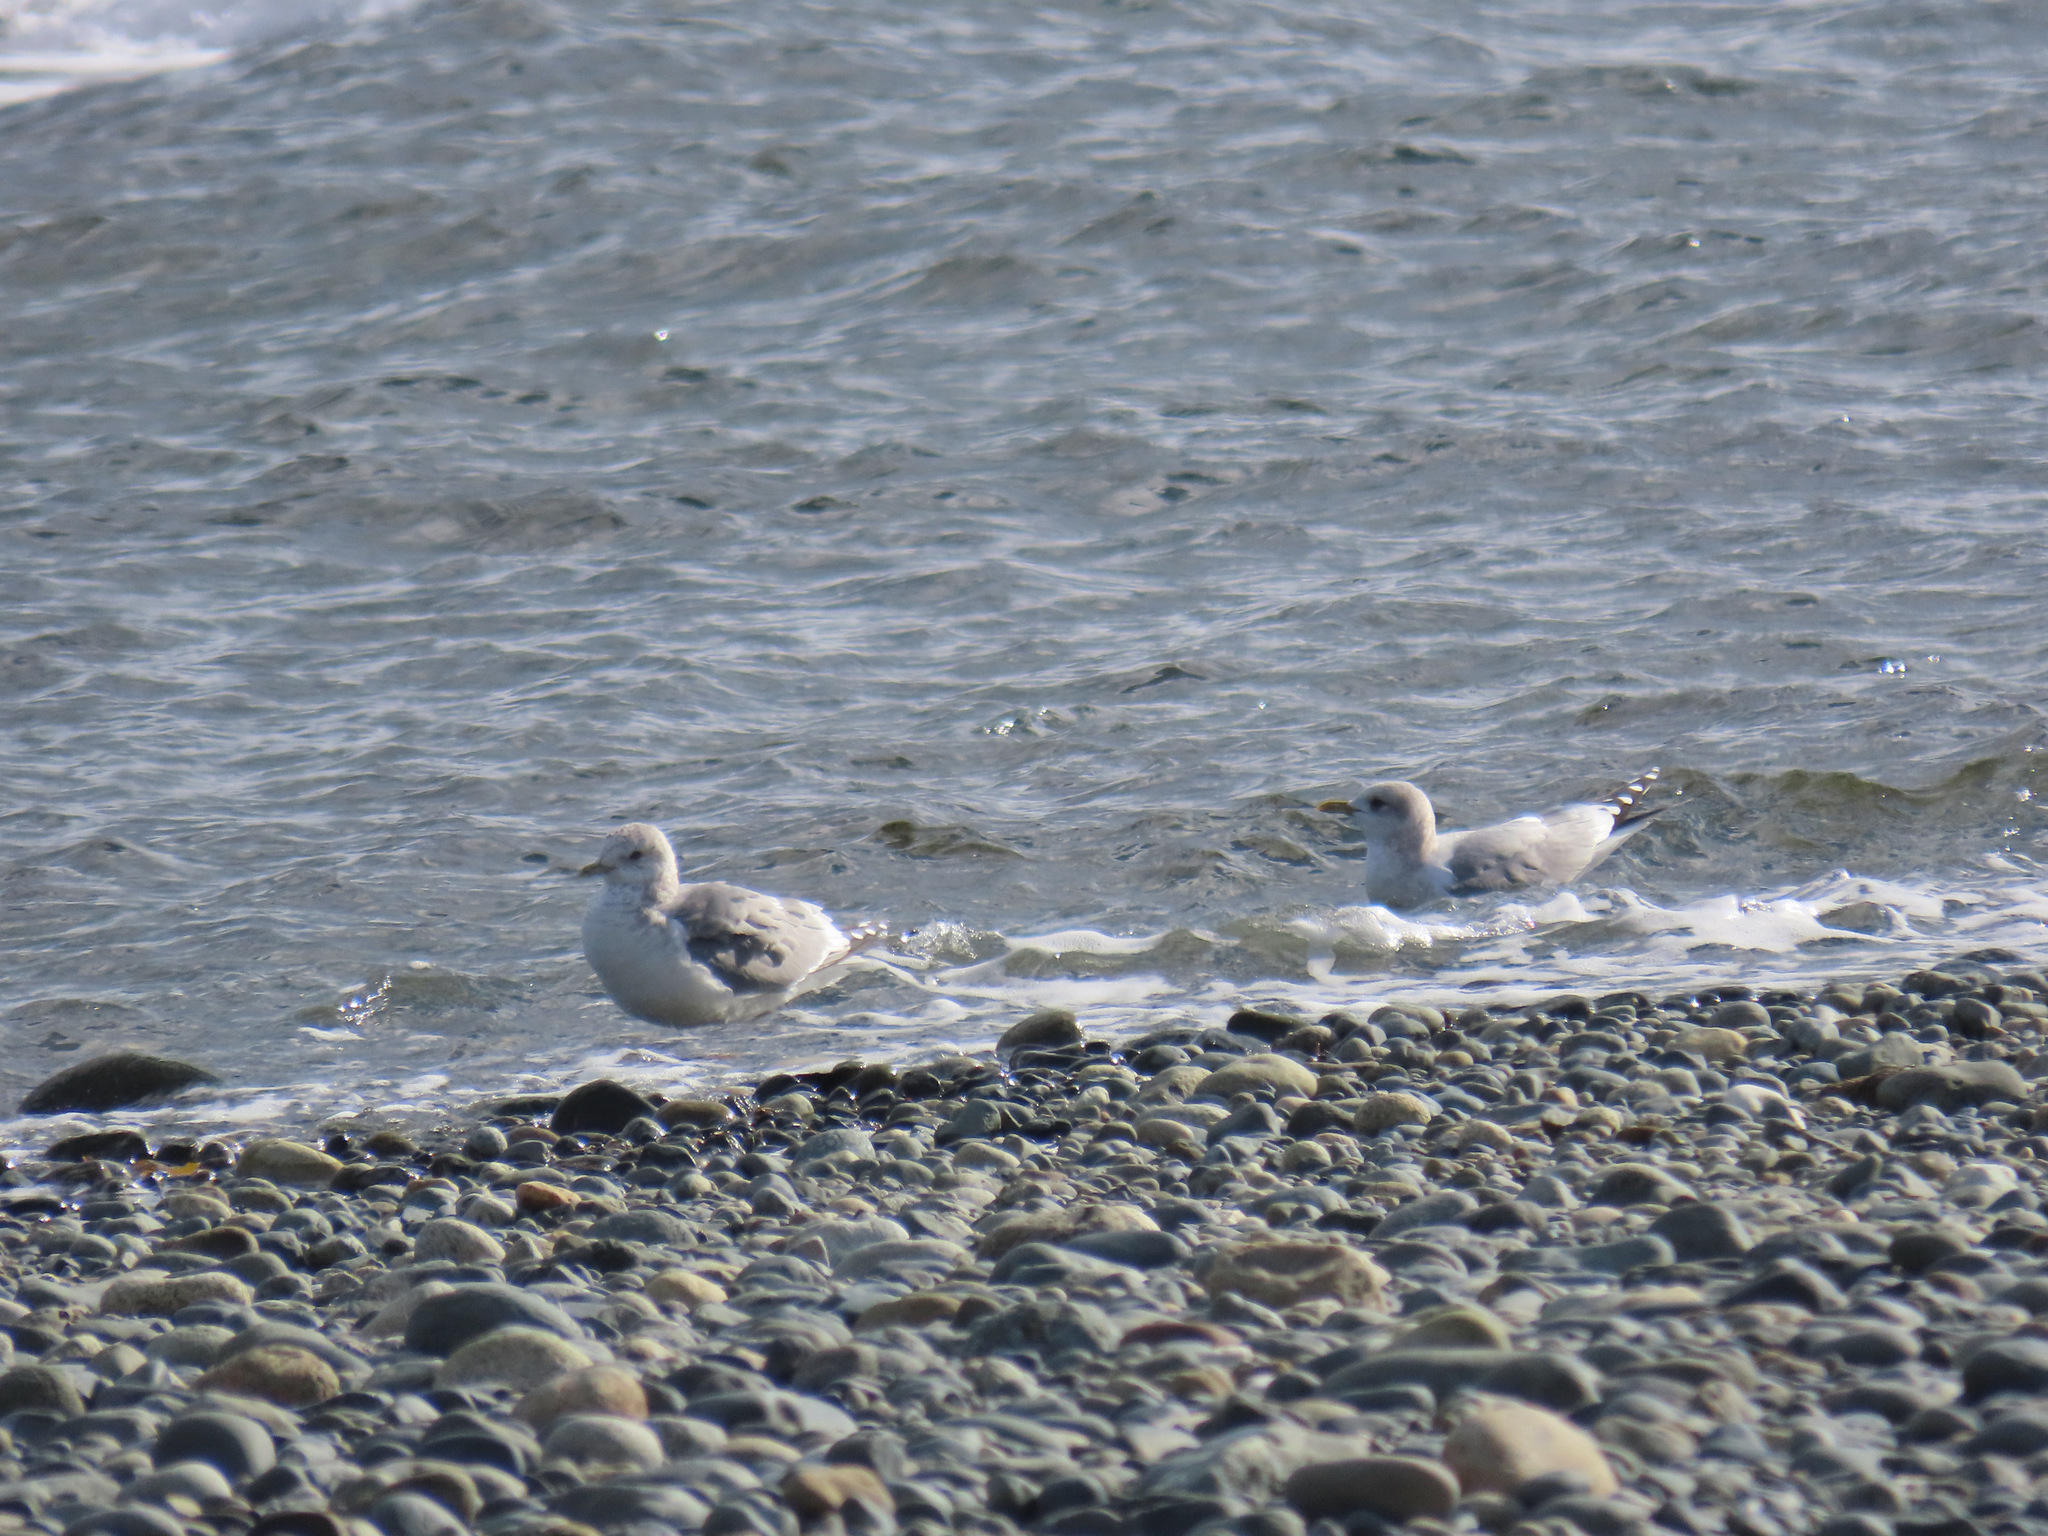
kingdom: Animalia
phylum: Chordata
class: Aves
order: Charadriiformes
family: Laridae
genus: Larus
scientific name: Larus brachyrhynchus
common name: Short-billed gull
